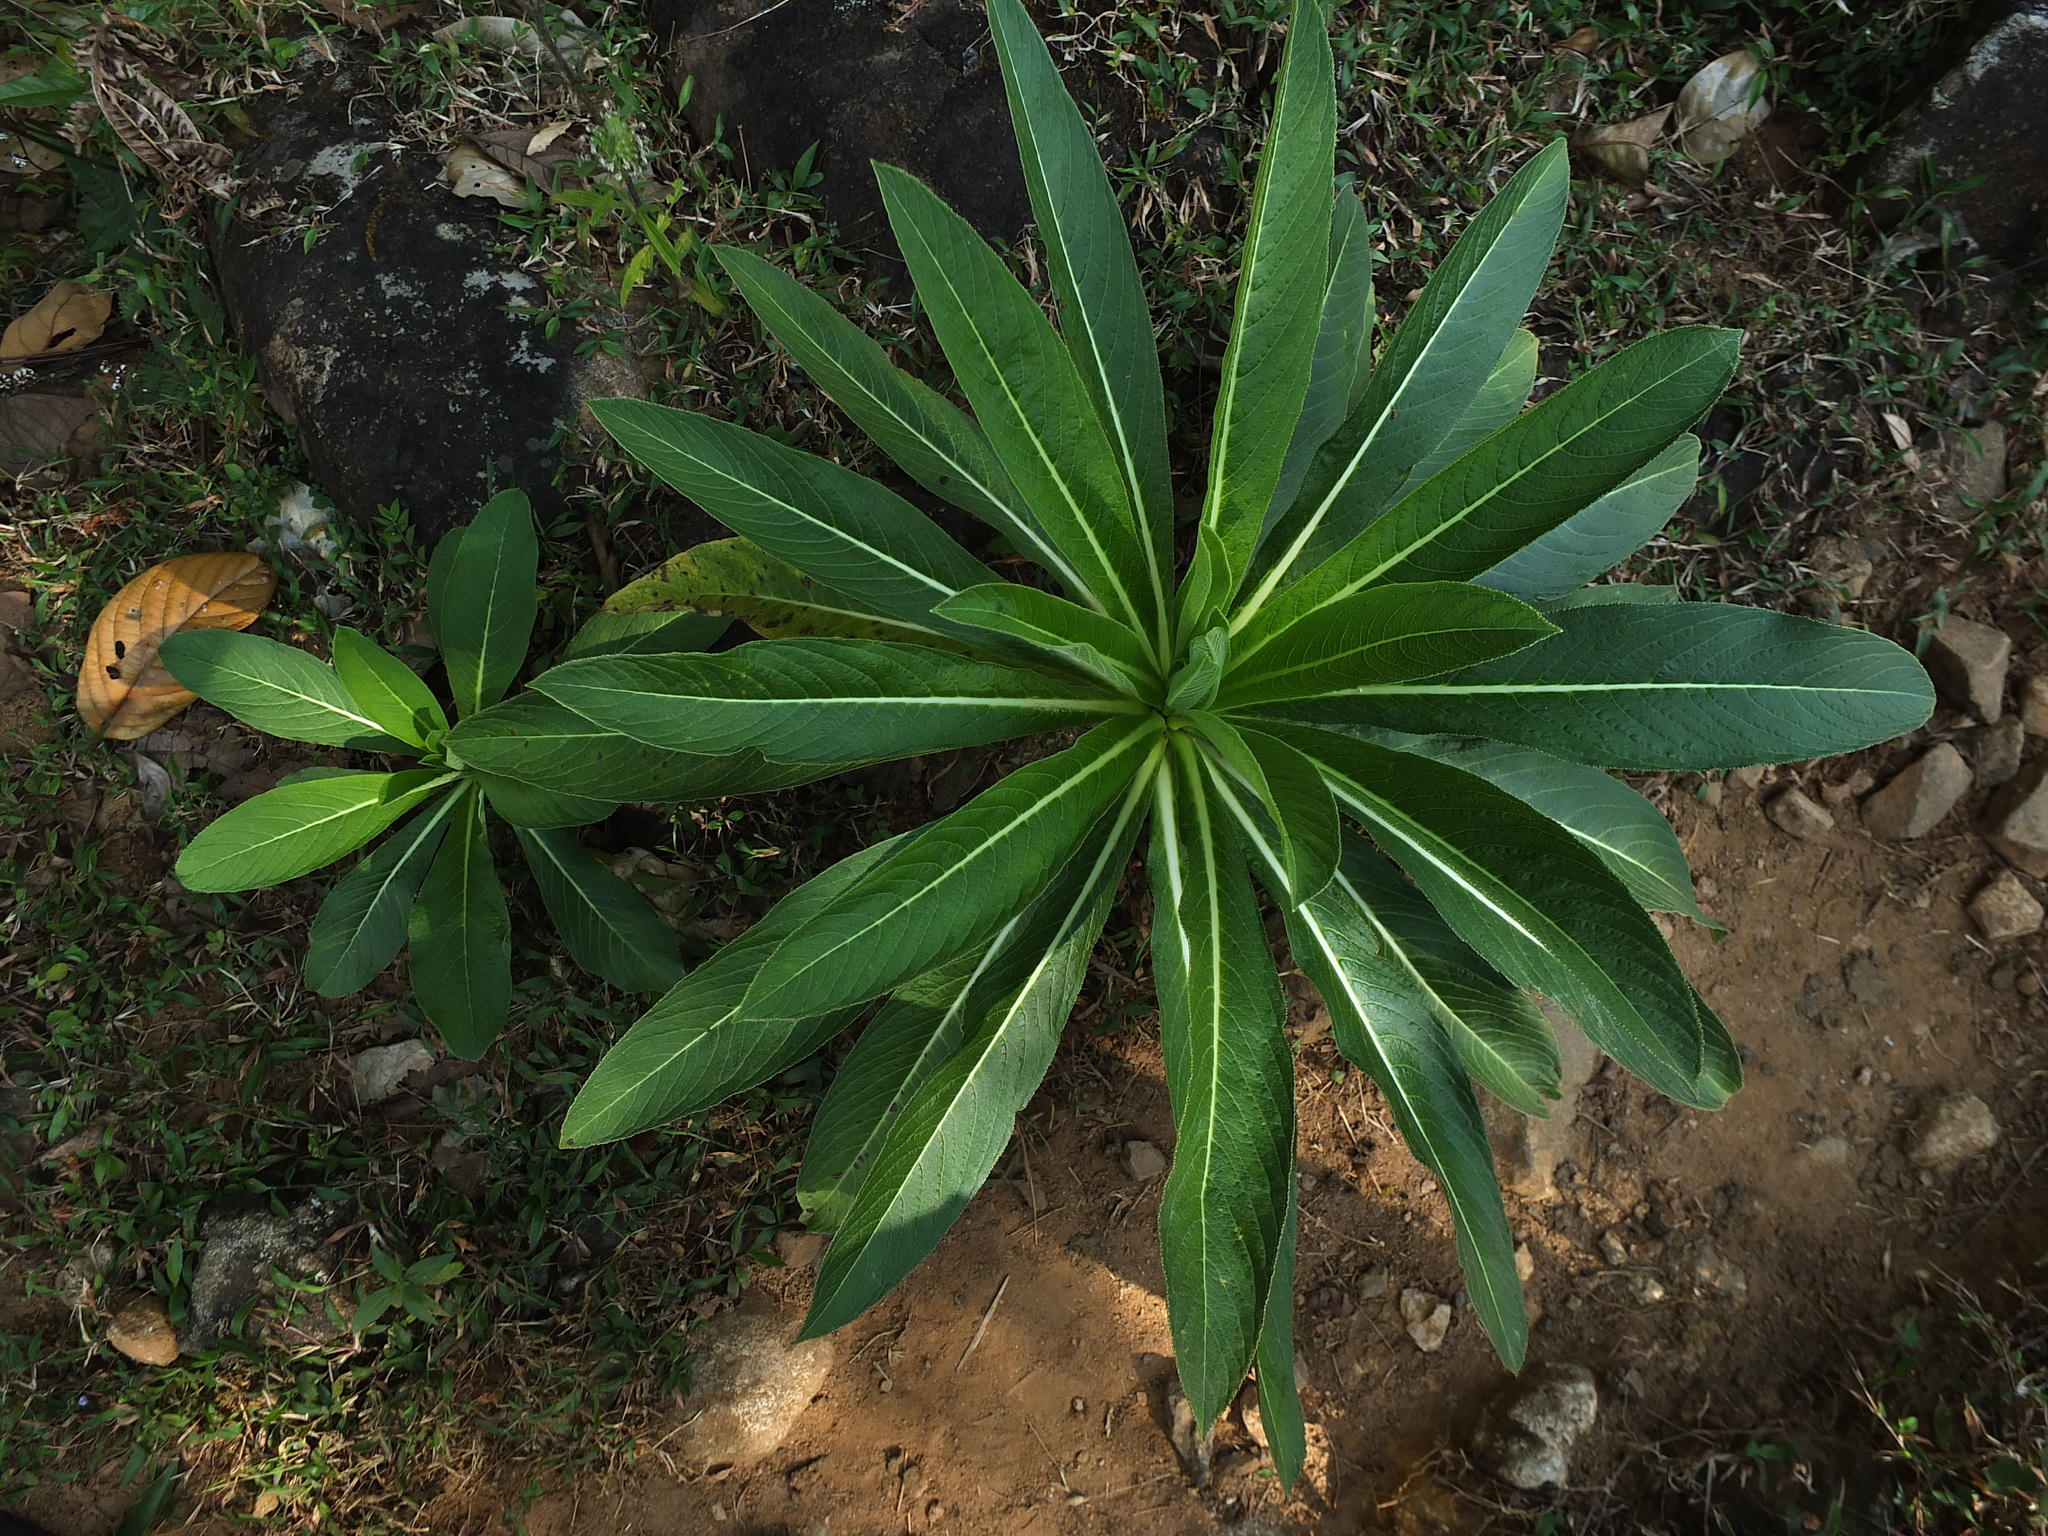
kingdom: Plantae
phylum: Tracheophyta
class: Magnoliopsida
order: Asterales
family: Campanulaceae
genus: Lobelia
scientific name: Lobelia nicotianifolia
